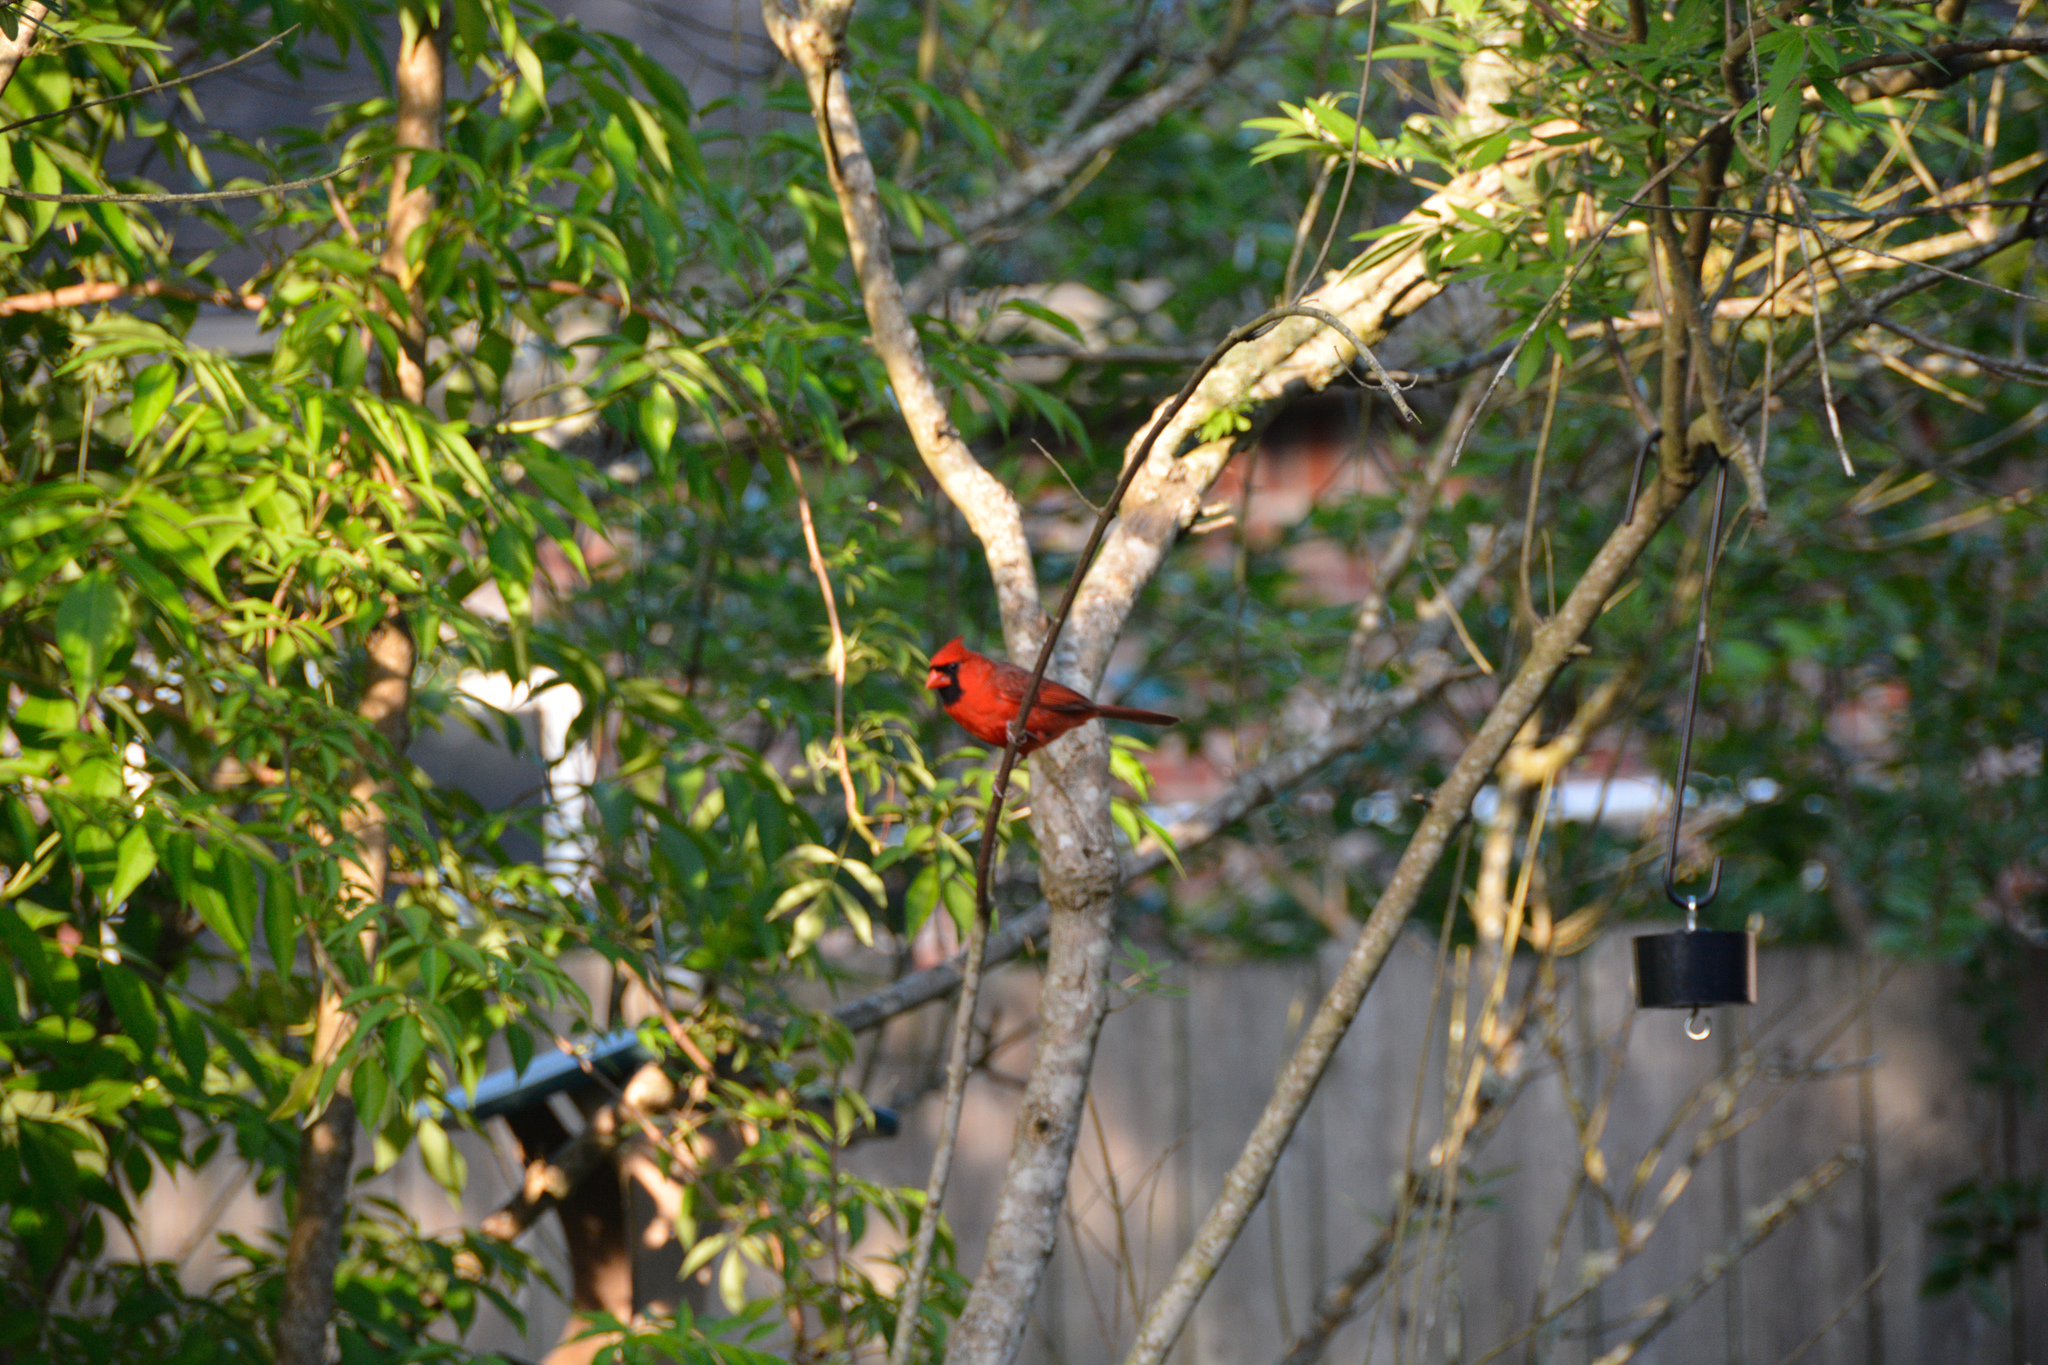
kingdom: Animalia
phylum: Chordata
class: Aves
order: Passeriformes
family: Cardinalidae
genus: Cardinalis
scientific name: Cardinalis cardinalis
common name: Northern cardinal
